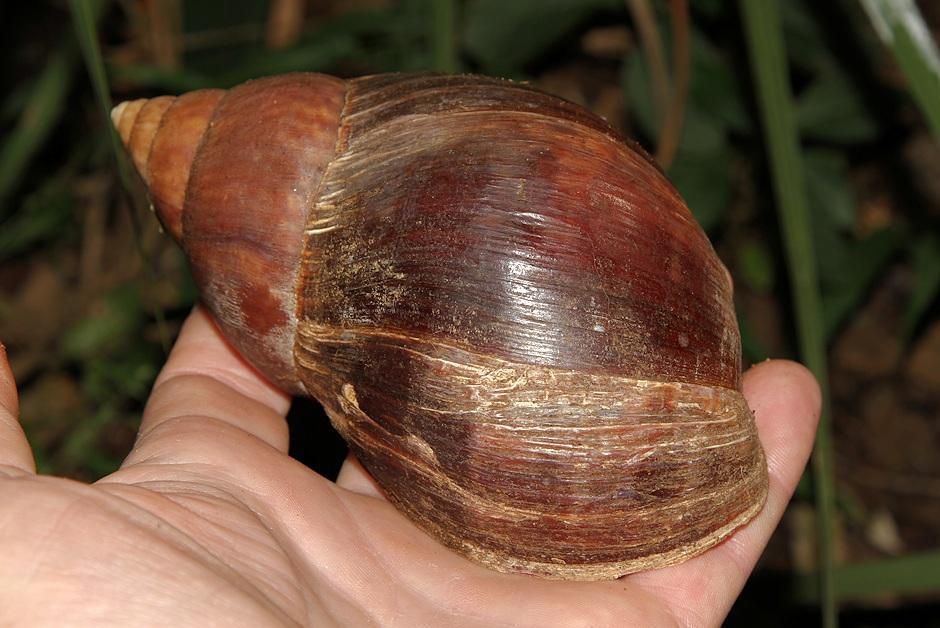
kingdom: Animalia
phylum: Mollusca
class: Gastropoda
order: Stylommatophora
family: Achatinidae
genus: Lissachatina
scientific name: Lissachatina immaculata
